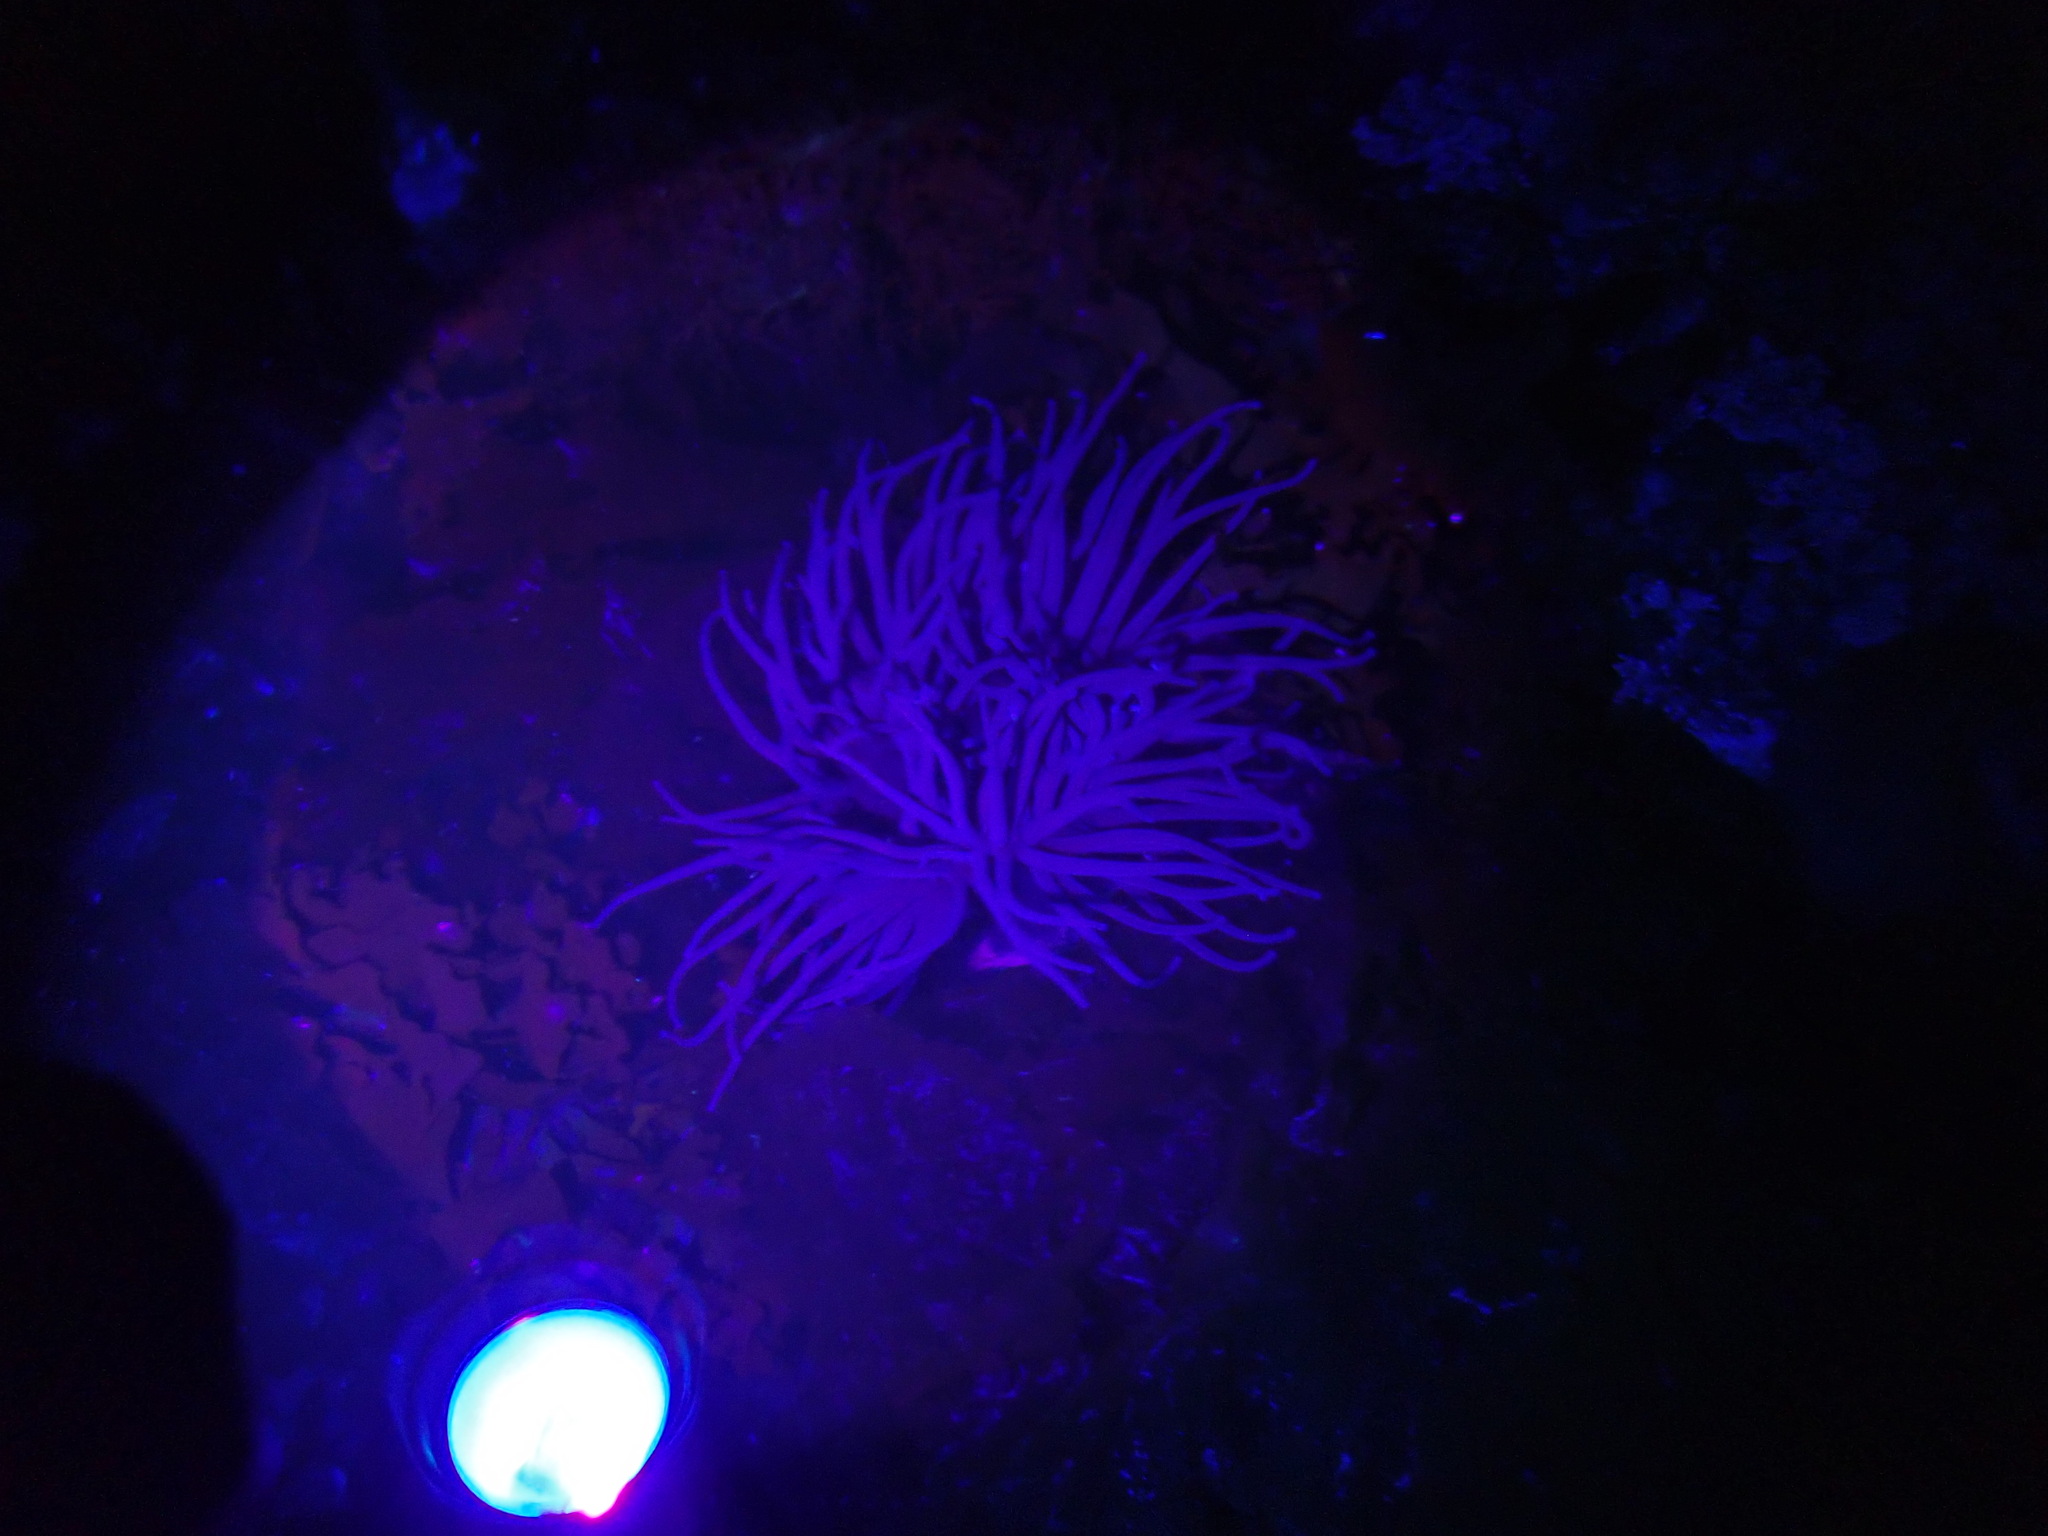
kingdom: Animalia
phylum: Cnidaria
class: Anthozoa
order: Actiniaria
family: Actiniidae
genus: Anemonia
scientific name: Anemonia viridis
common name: Snakelocks anemone
